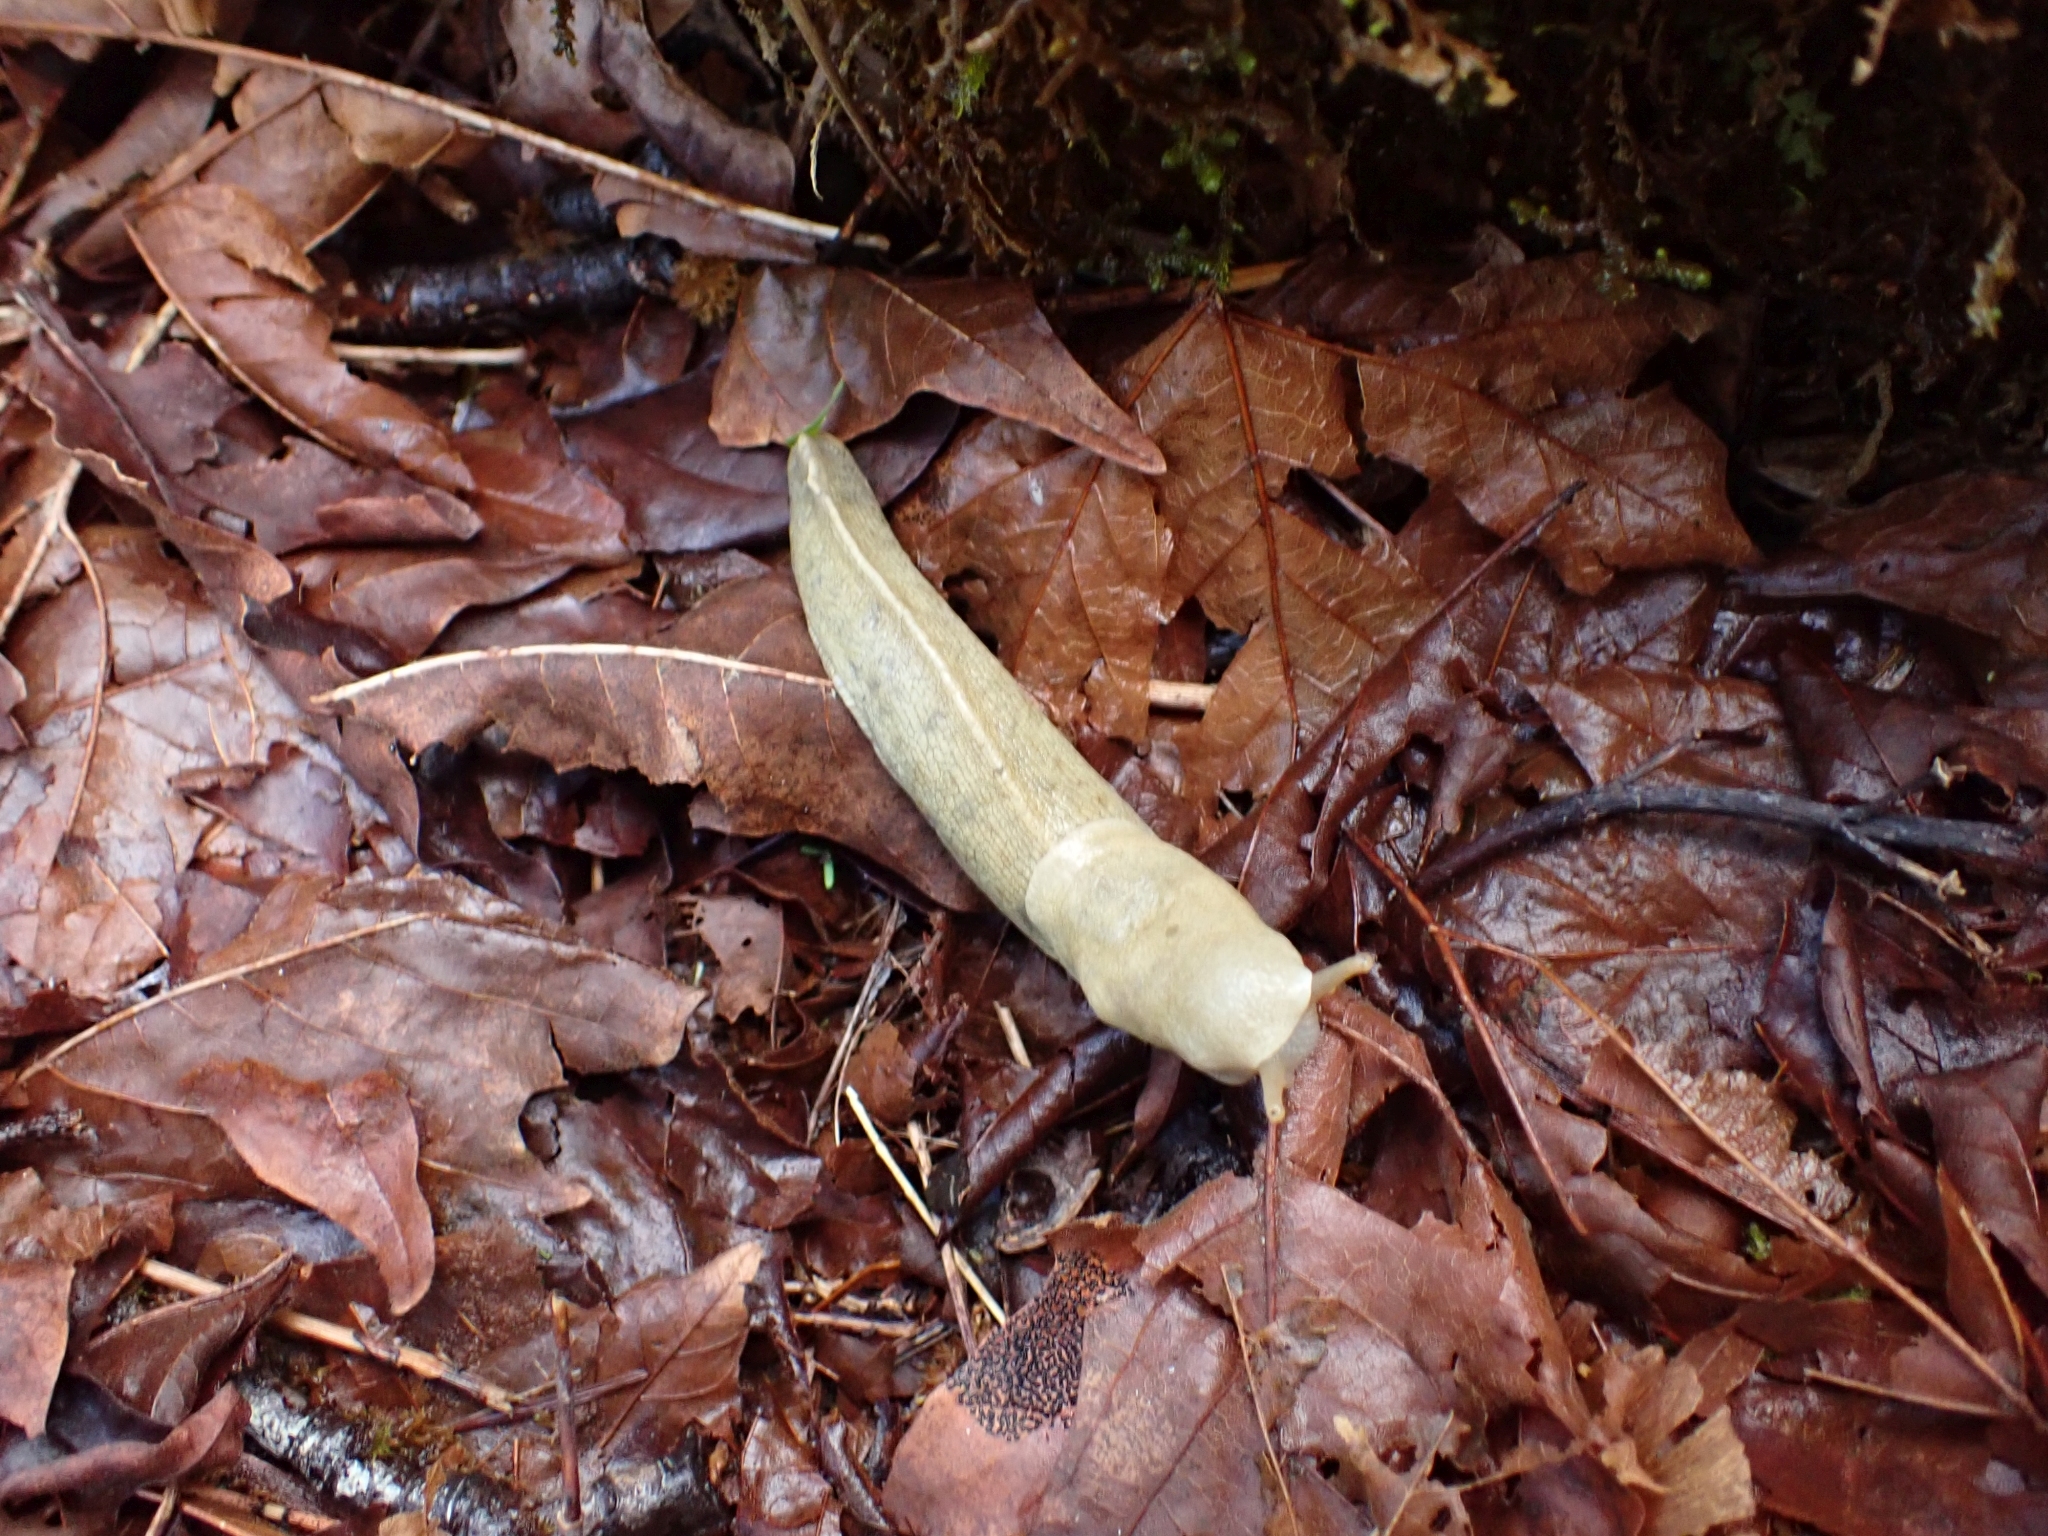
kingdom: Animalia
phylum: Mollusca
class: Gastropoda
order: Stylommatophora
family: Ariolimacidae
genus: Ariolimax
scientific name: Ariolimax columbianus
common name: Pacific banana slug
